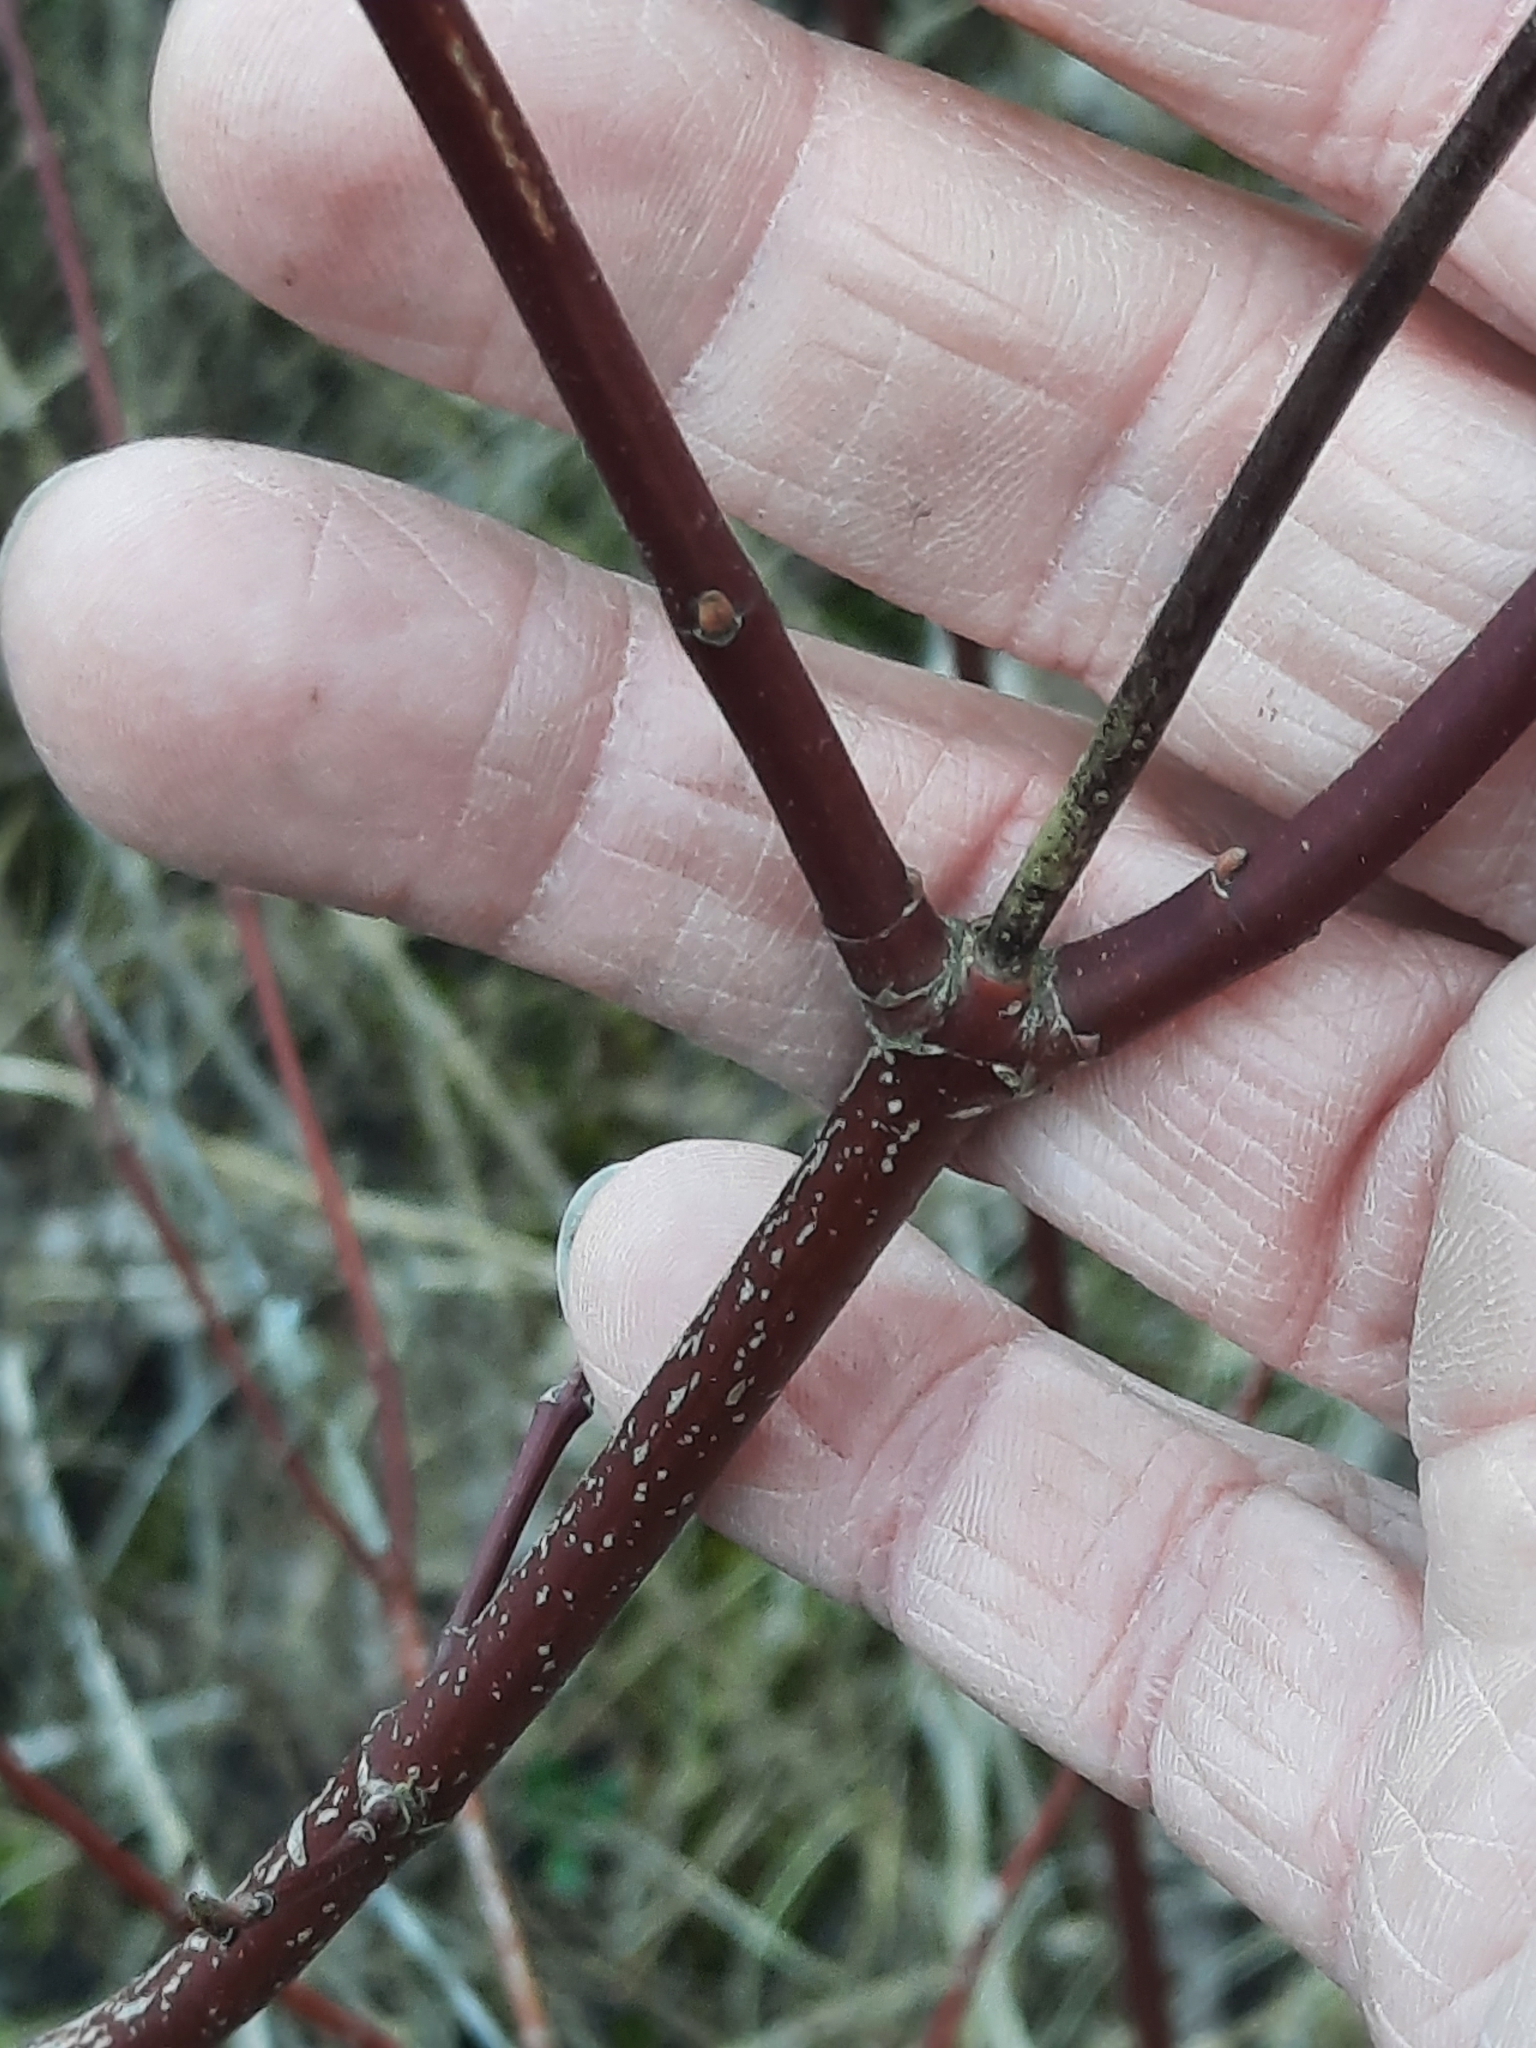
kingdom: Plantae
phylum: Tracheophyta
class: Magnoliopsida
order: Cornales
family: Cornaceae
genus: Cornus
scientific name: Cornus amomum
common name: Silky dogwood
